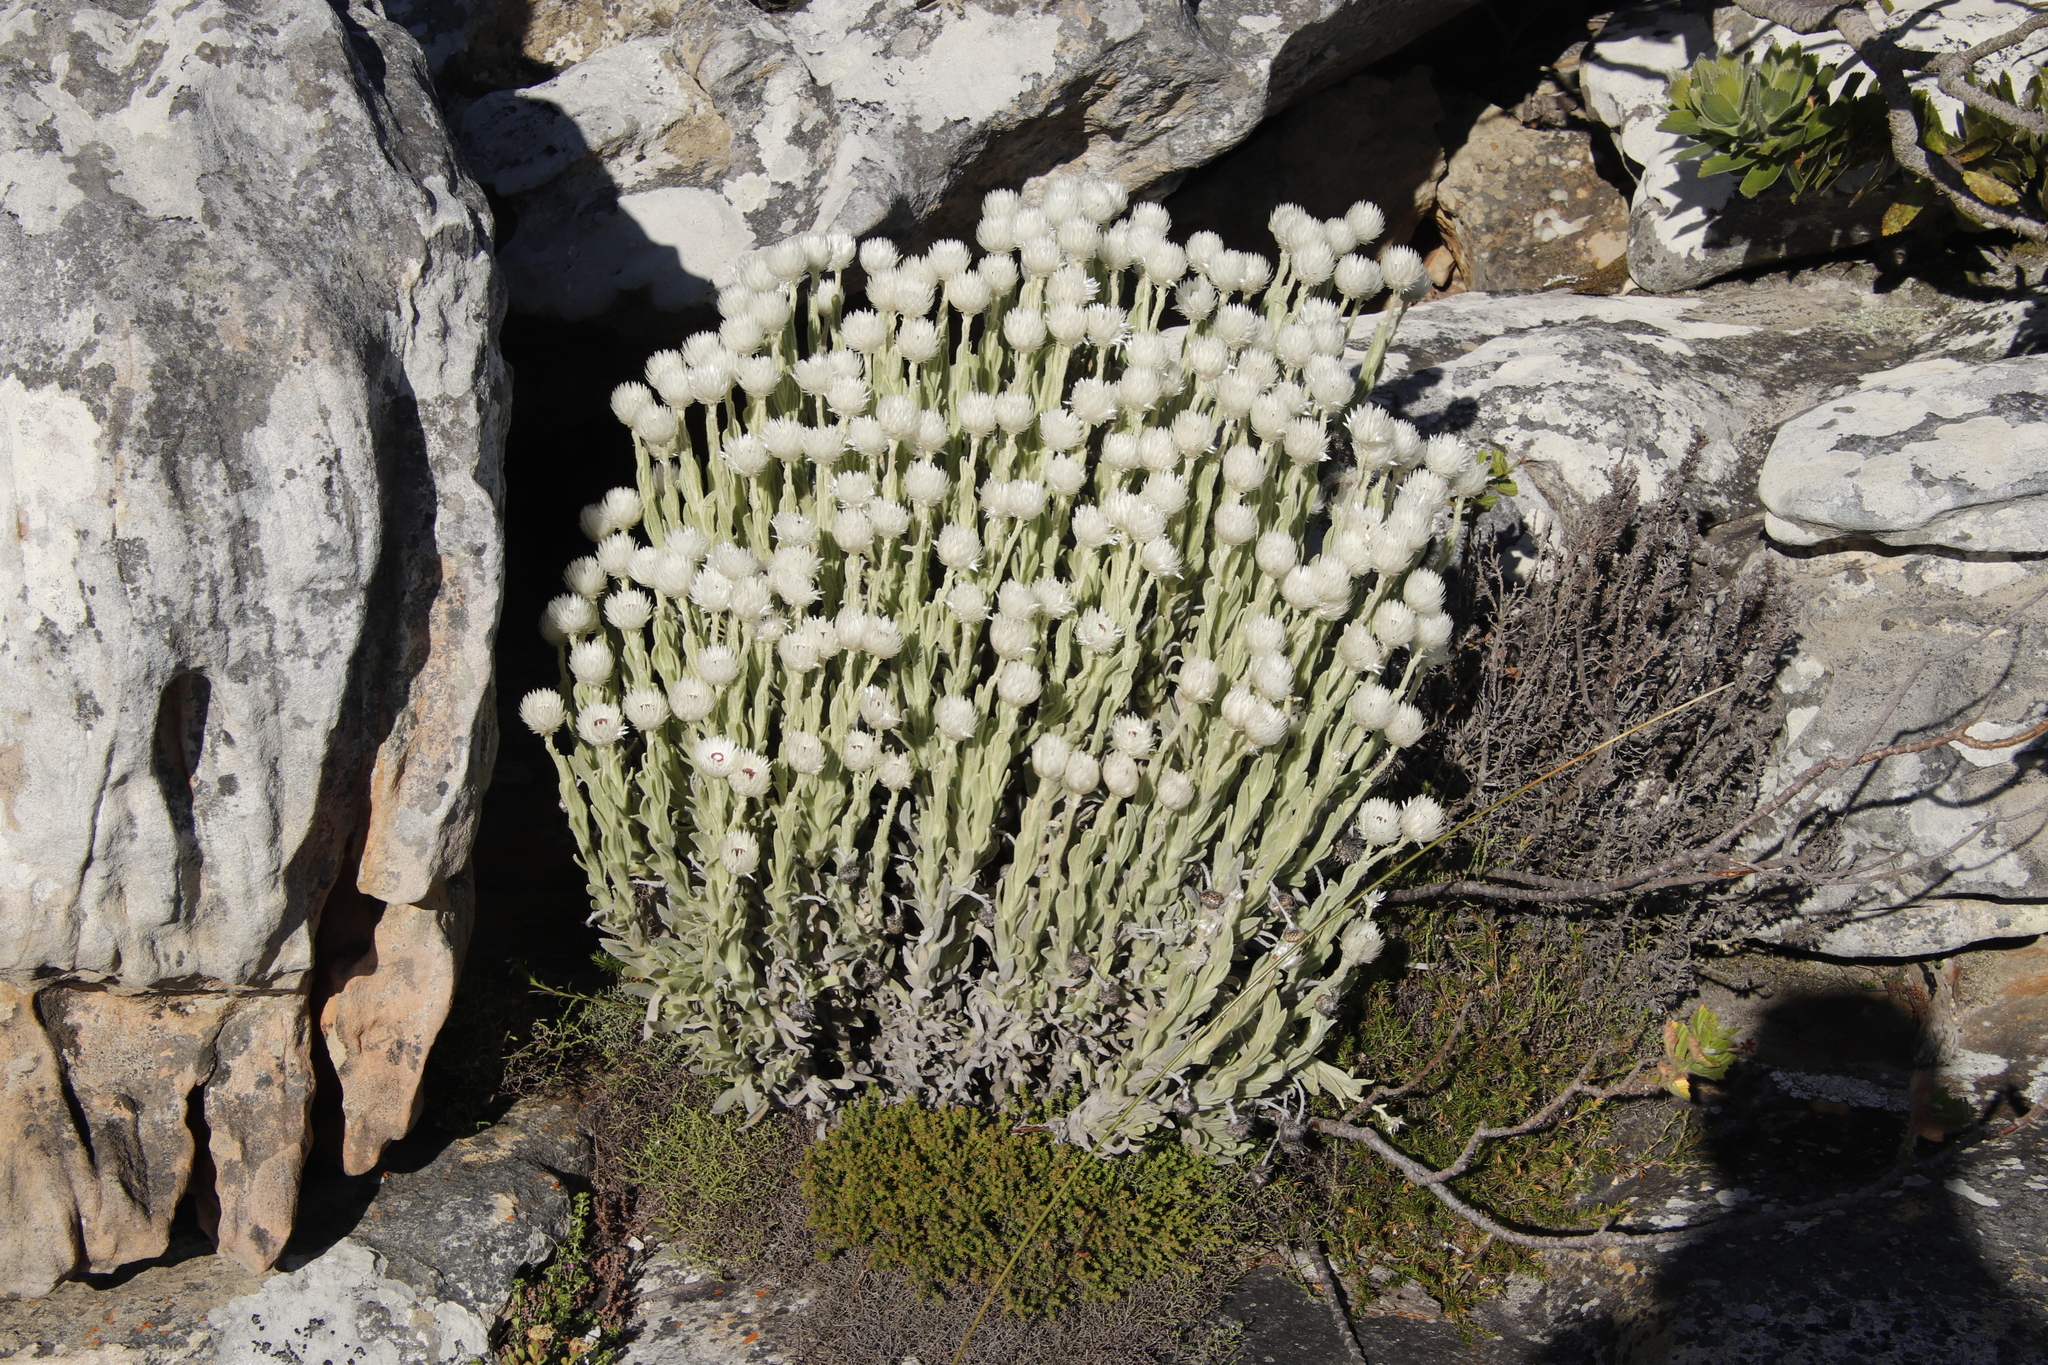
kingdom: Plantae
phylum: Tracheophyta
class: Magnoliopsida
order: Asterales
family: Asteraceae
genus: Syncarpha
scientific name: Syncarpha vestita
